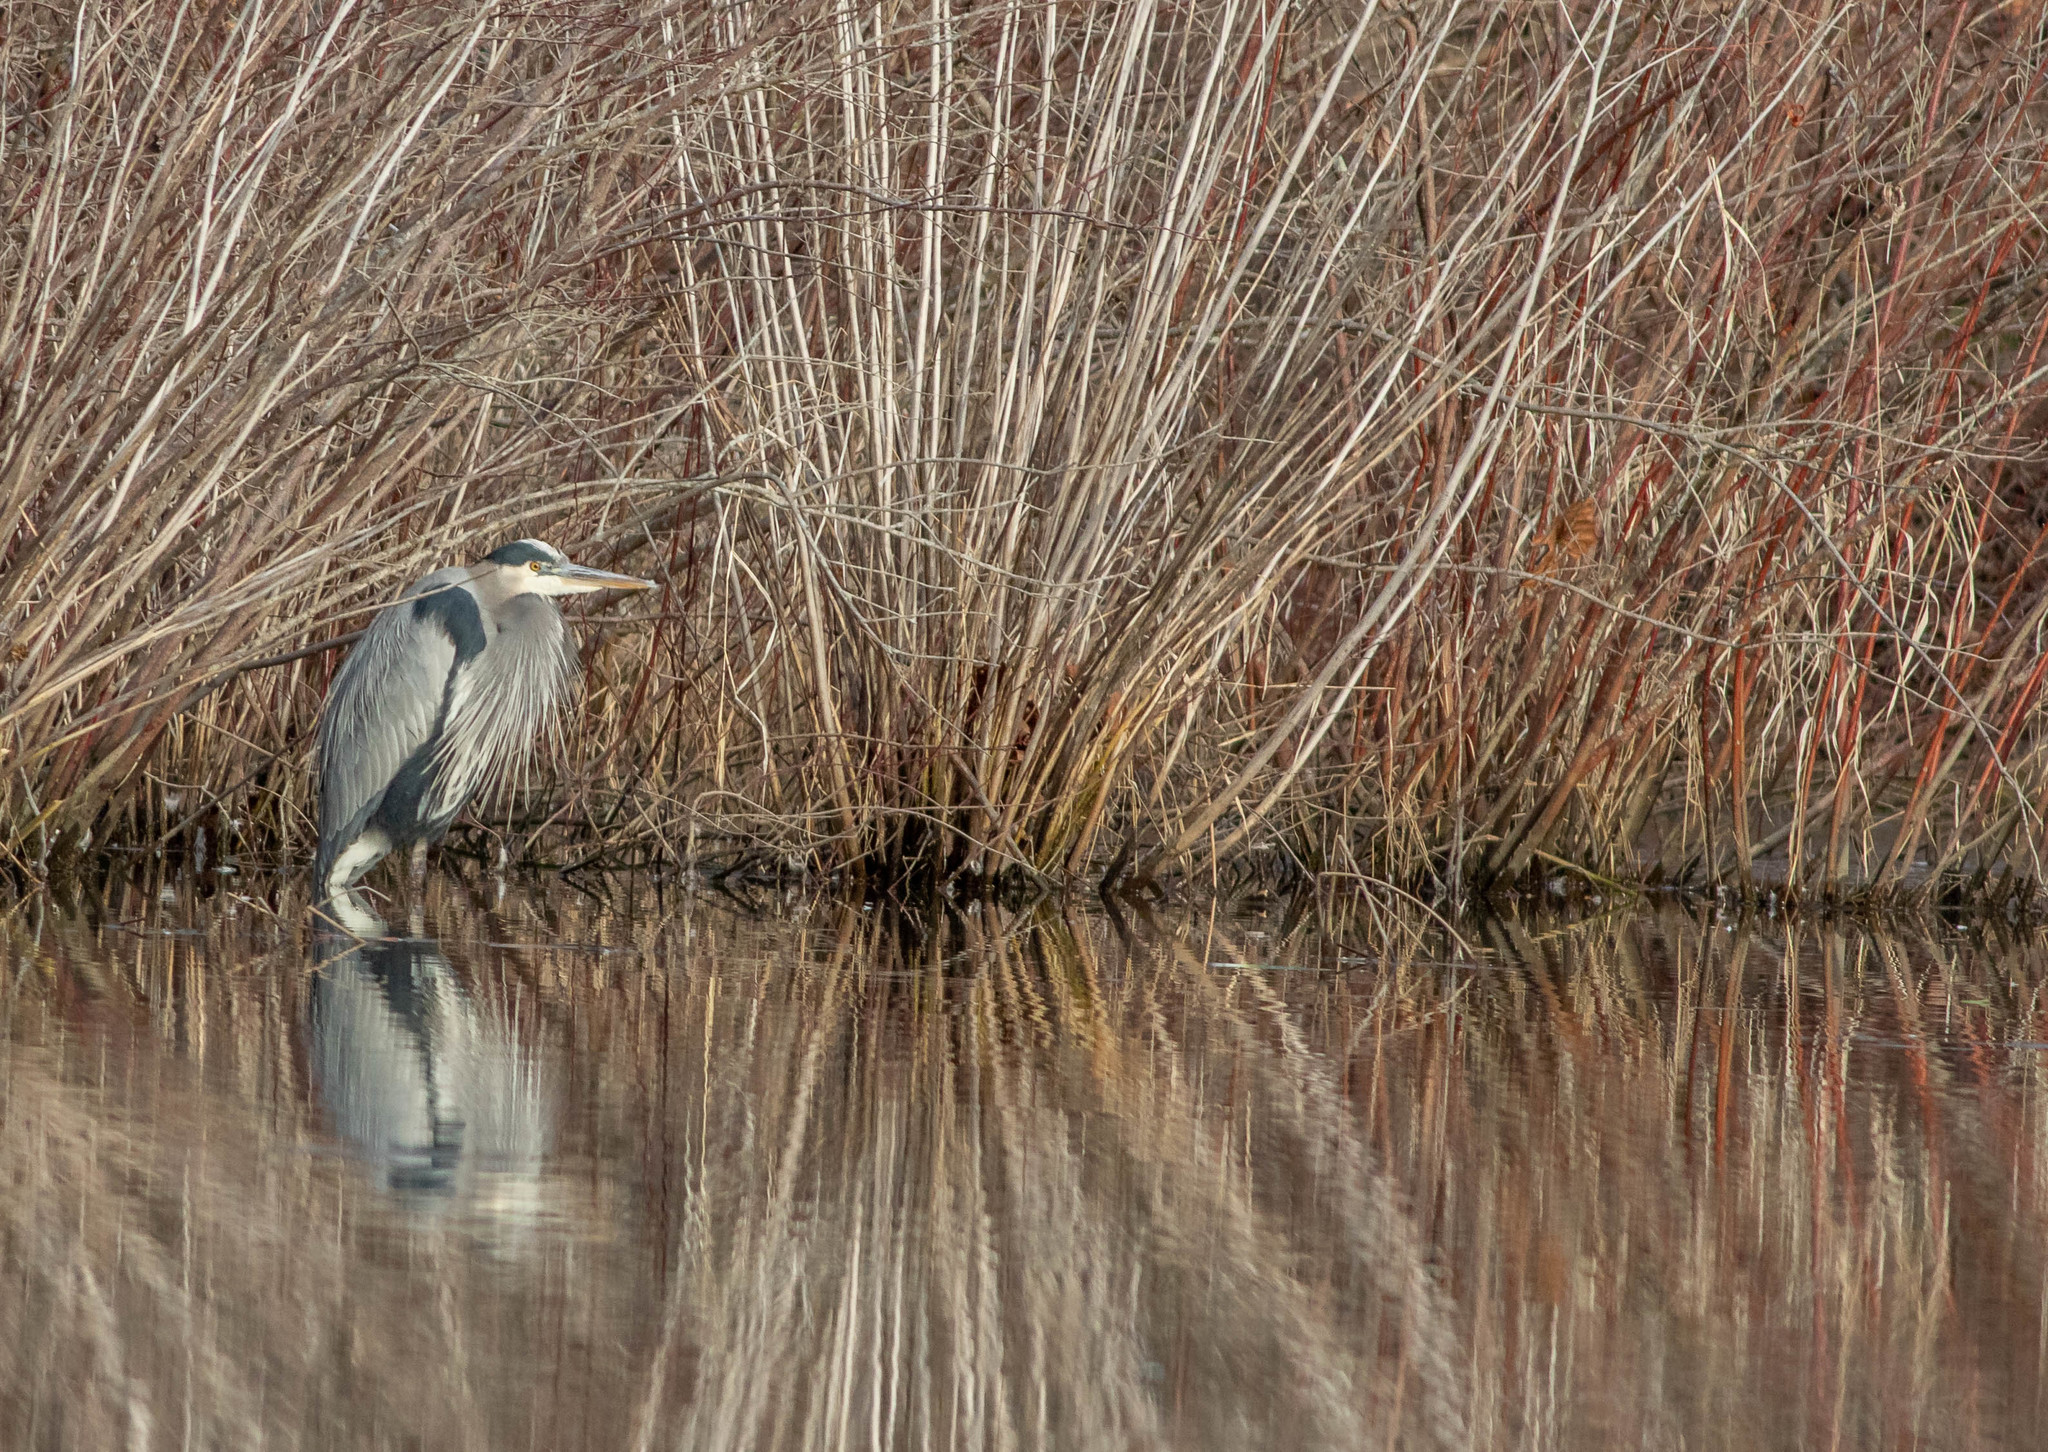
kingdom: Animalia
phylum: Chordata
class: Aves
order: Pelecaniformes
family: Ardeidae
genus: Ardea
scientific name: Ardea herodias
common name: Great blue heron
